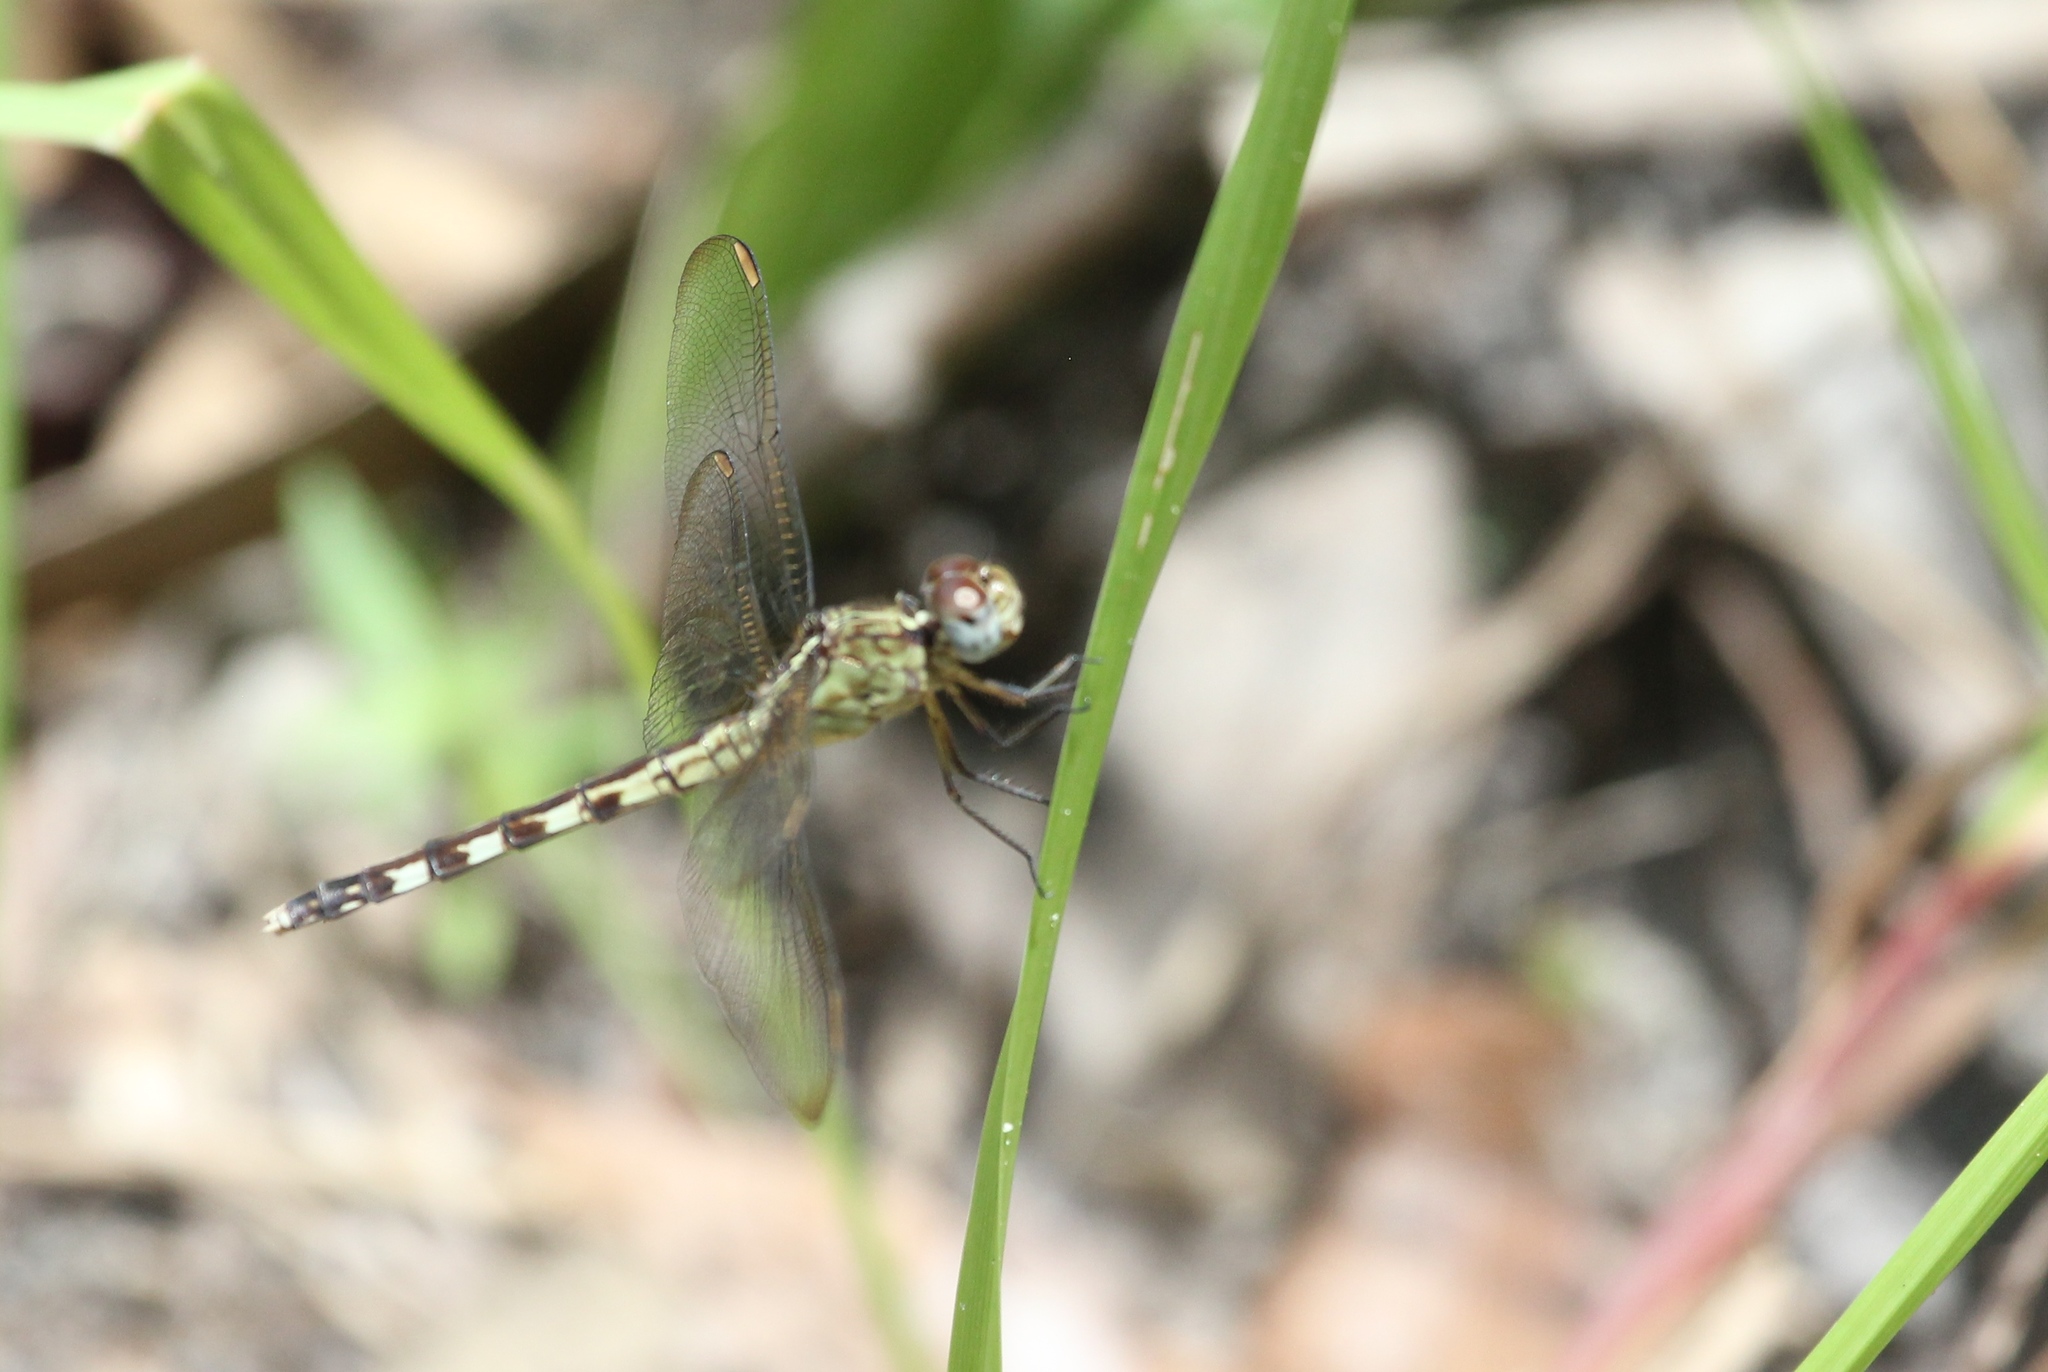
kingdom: Animalia
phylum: Arthropoda
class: Insecta
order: Odonata
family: Libellulidae
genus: Erythrodiplax
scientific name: Erythrodiplax umbrata
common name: Band-winged dragonlet
